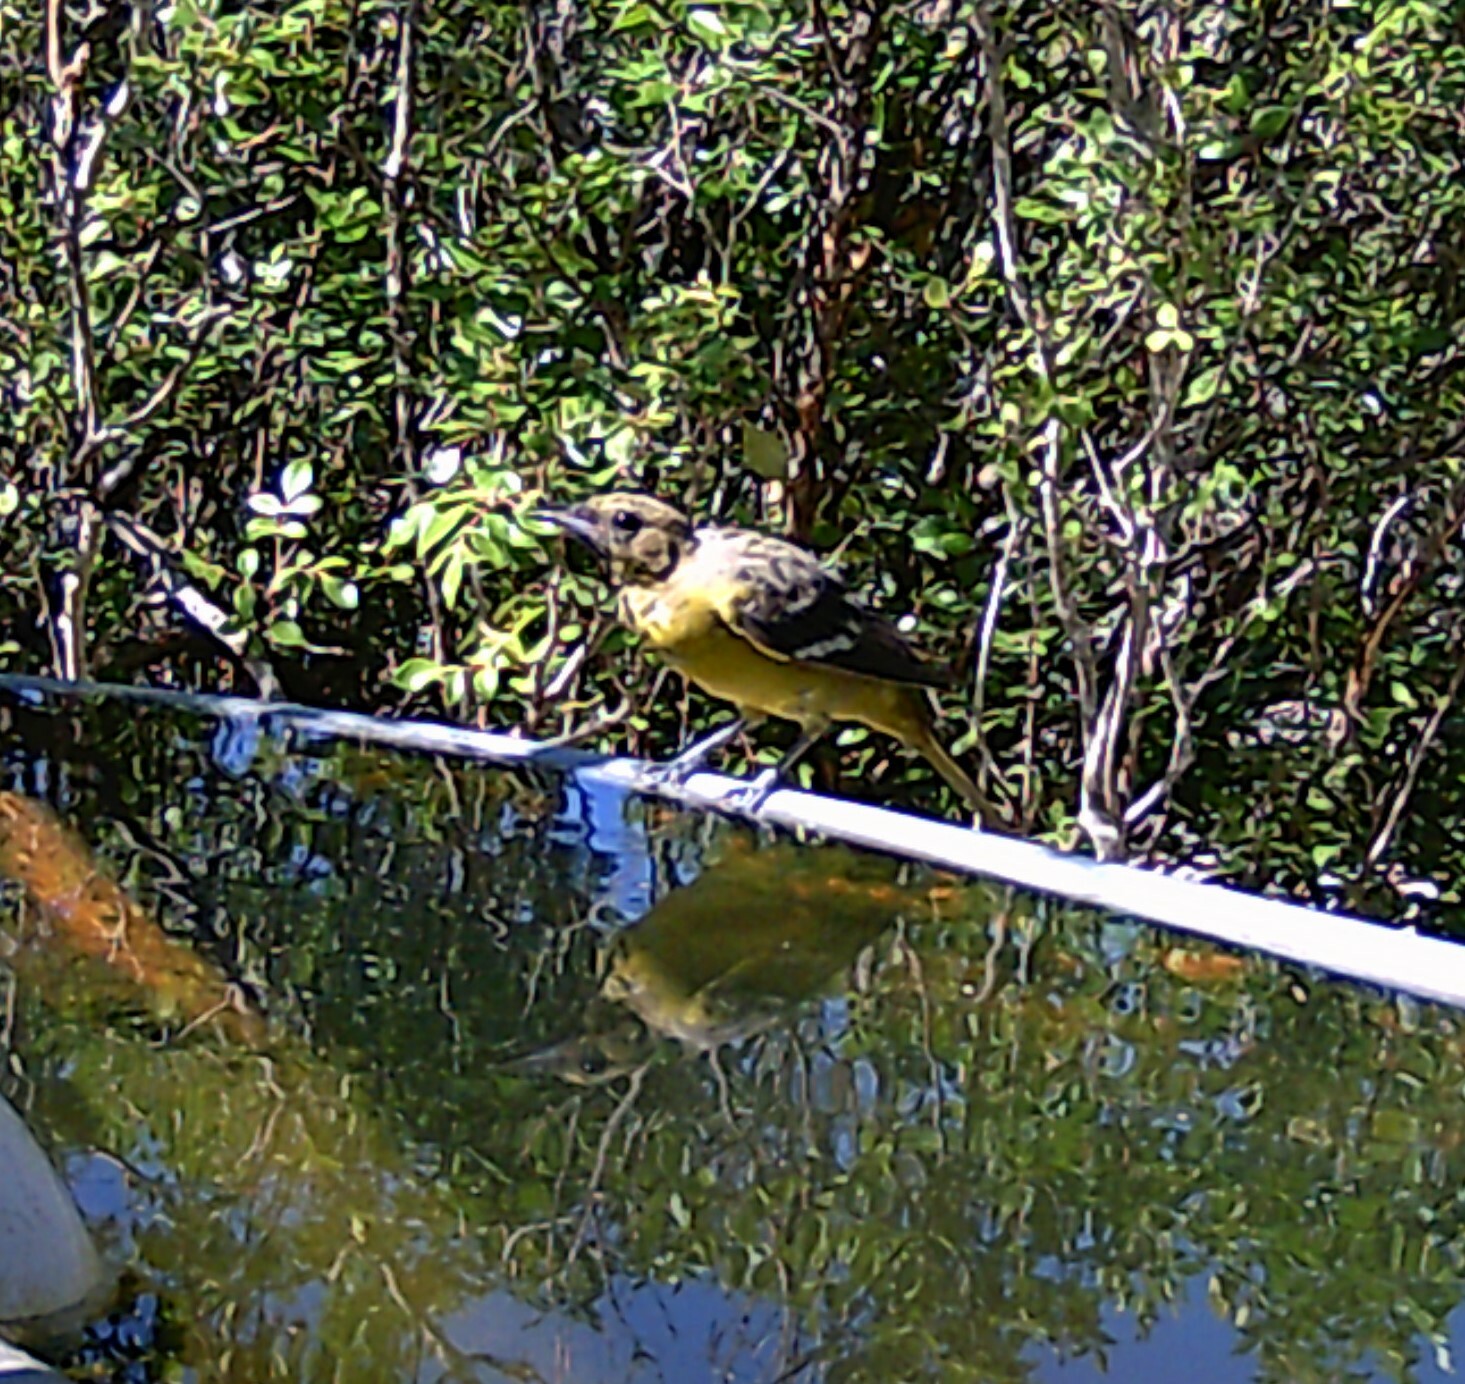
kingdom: Animalia
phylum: Chordata
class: Aves
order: Passeriformes
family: Icteridae
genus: Icterus
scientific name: Icterus parisorum
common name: Scott's oriole
